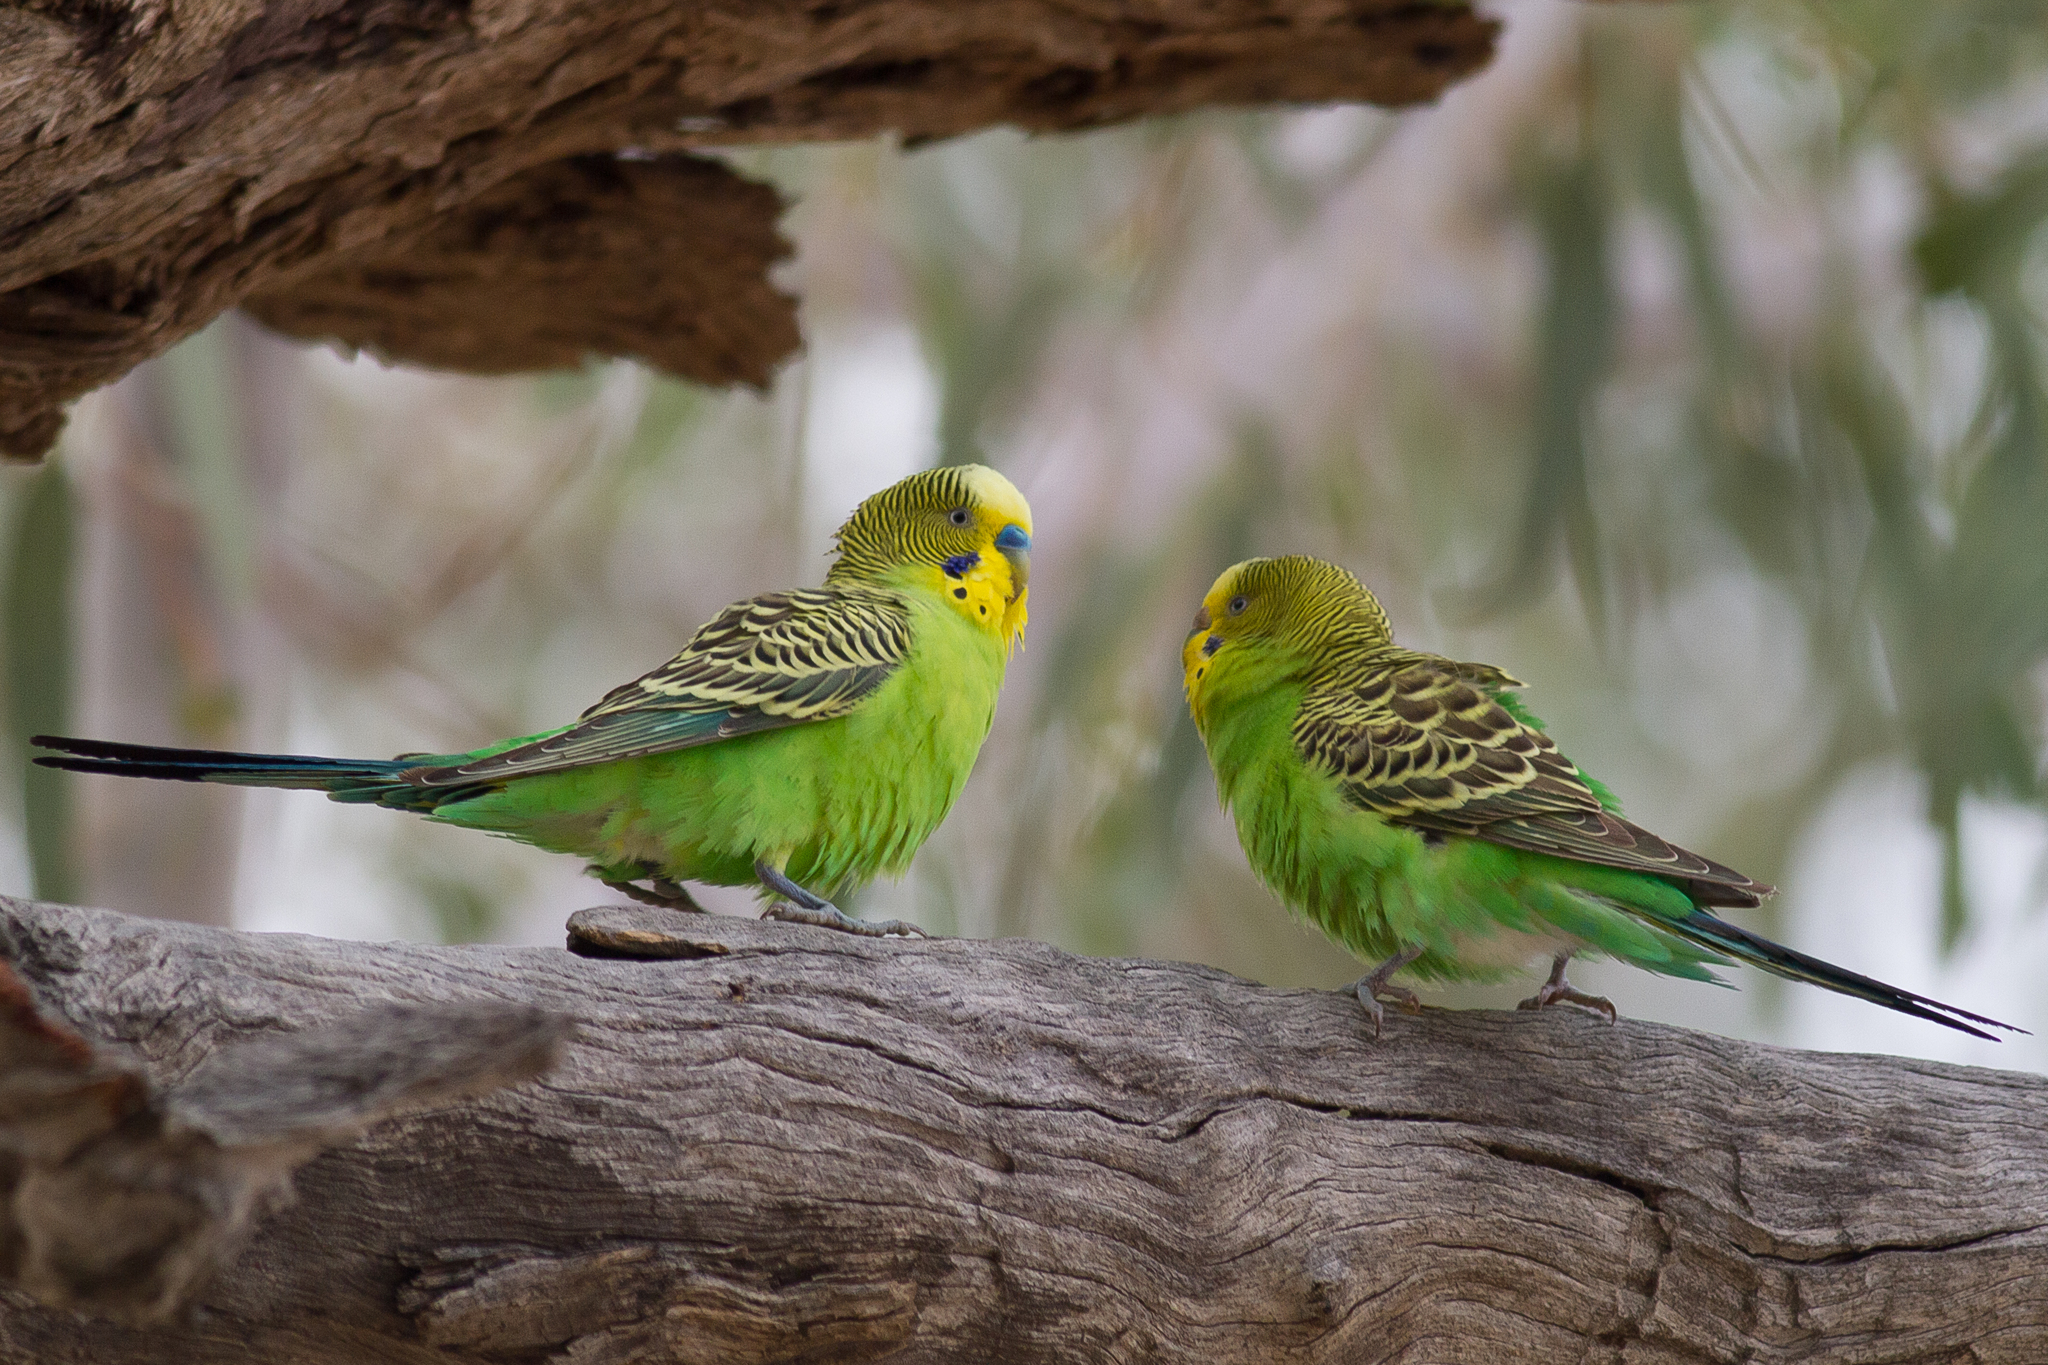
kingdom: Animalia
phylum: Chordata
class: Aves
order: Psittaciformes
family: Psittacidae
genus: Melopsittacus
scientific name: Melopsittacus undulatus
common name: Budgerigar
